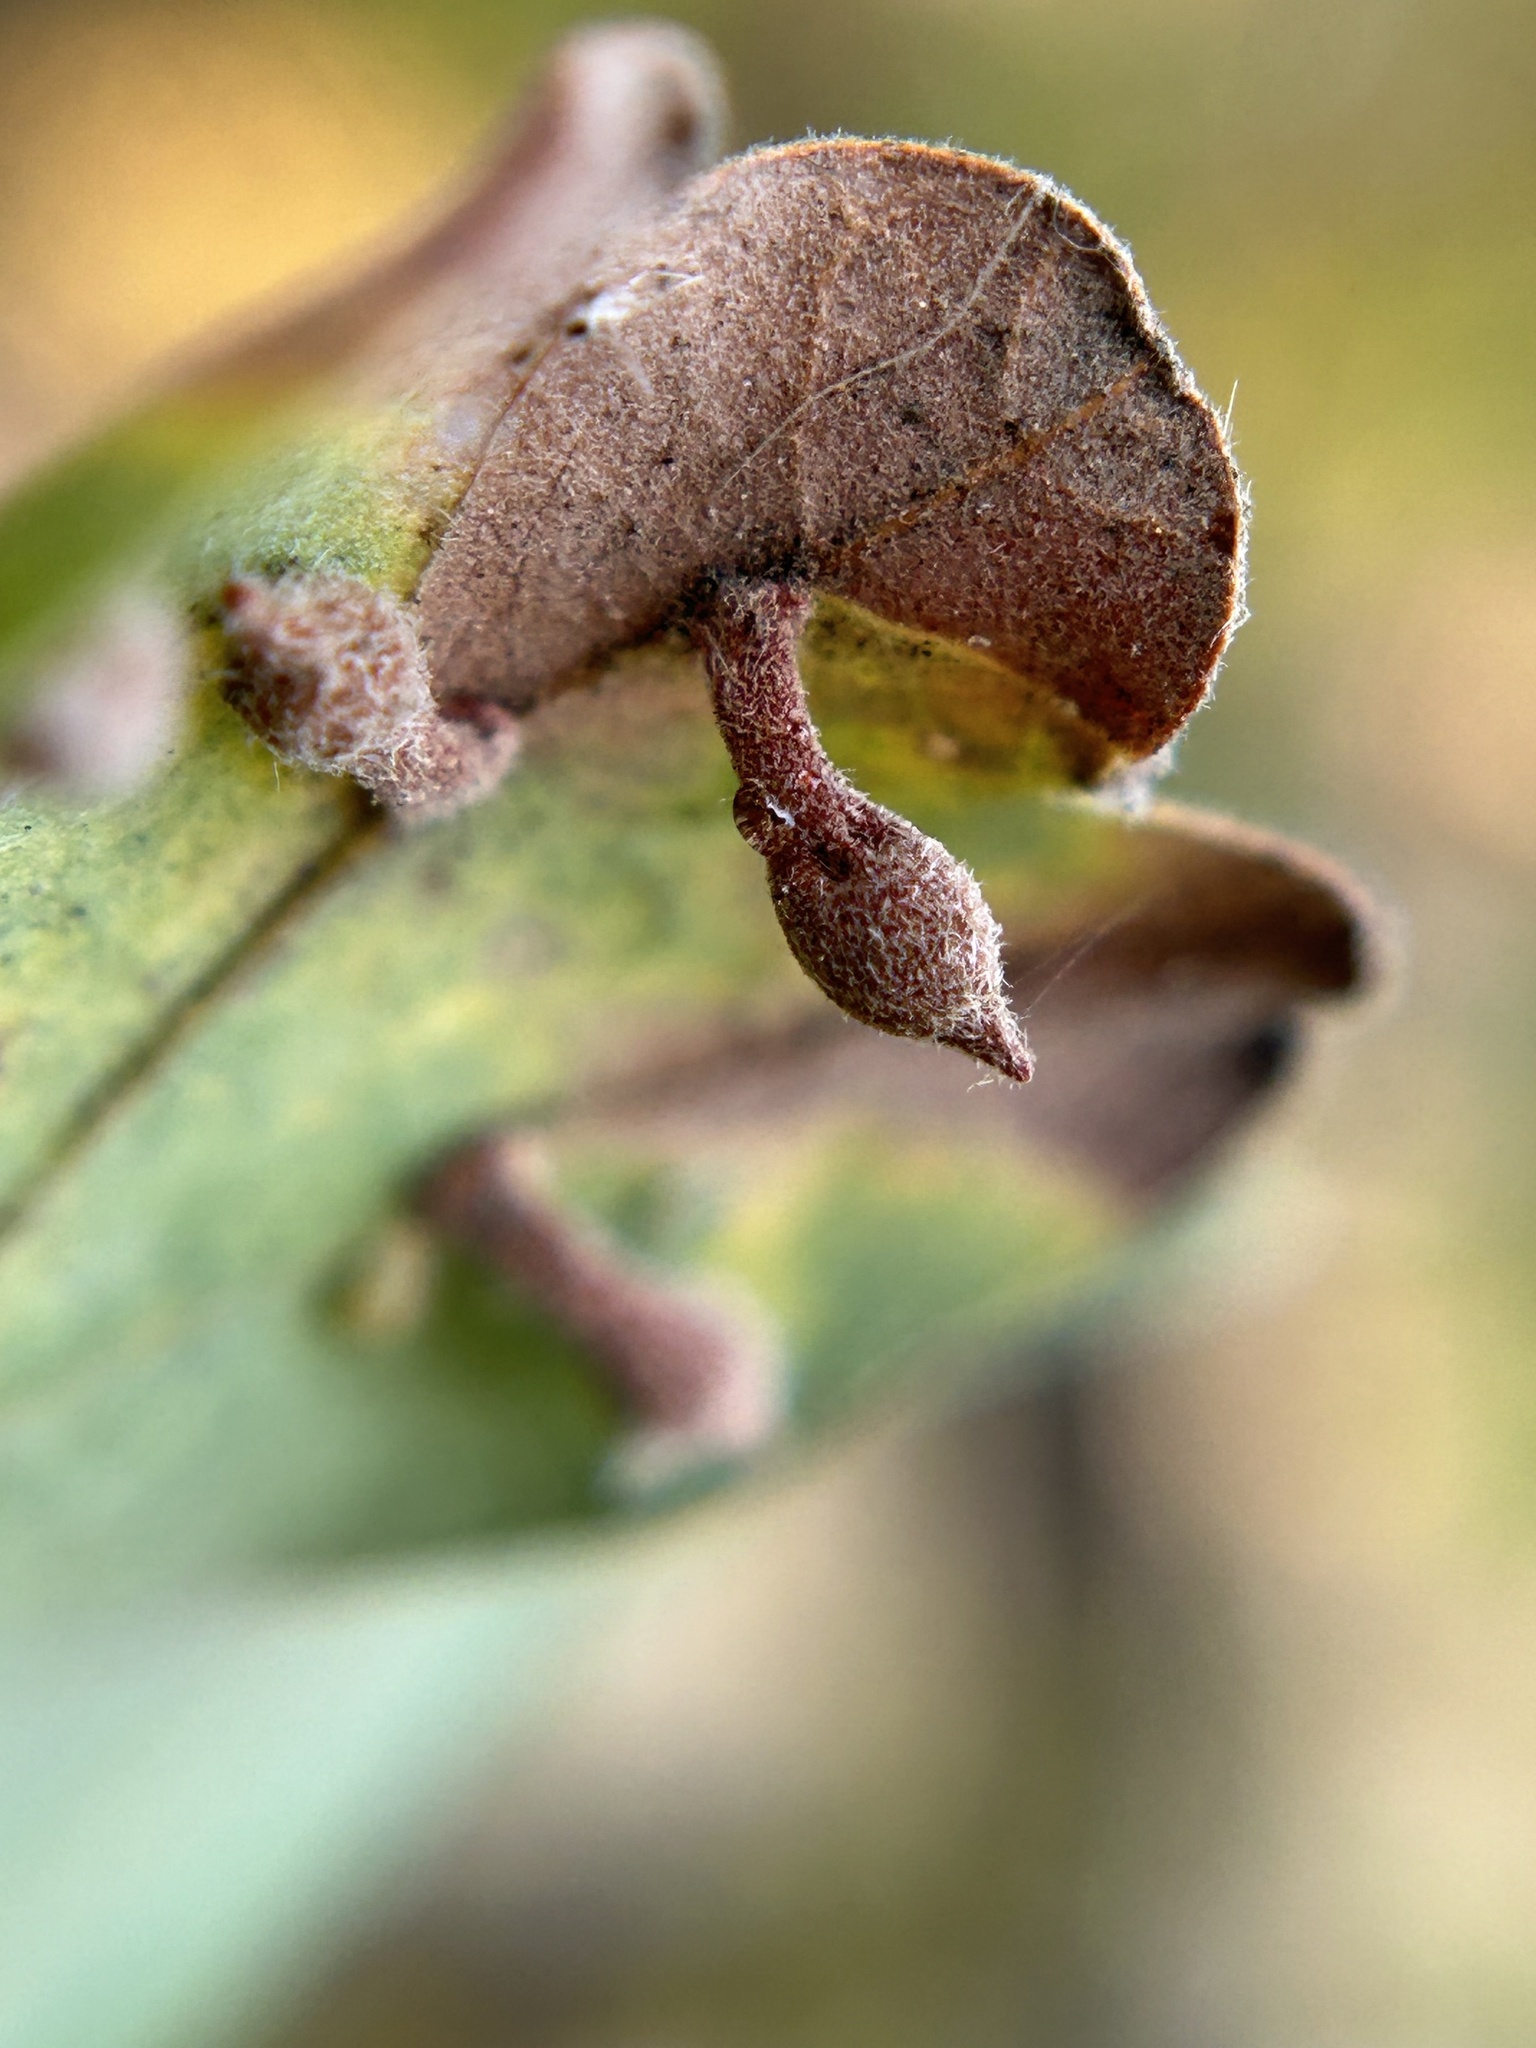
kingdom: Animalia
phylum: Arthropoda
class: Insecta
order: Hymenoptera
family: Cynipidae
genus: Atrusca
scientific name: Atrusca
